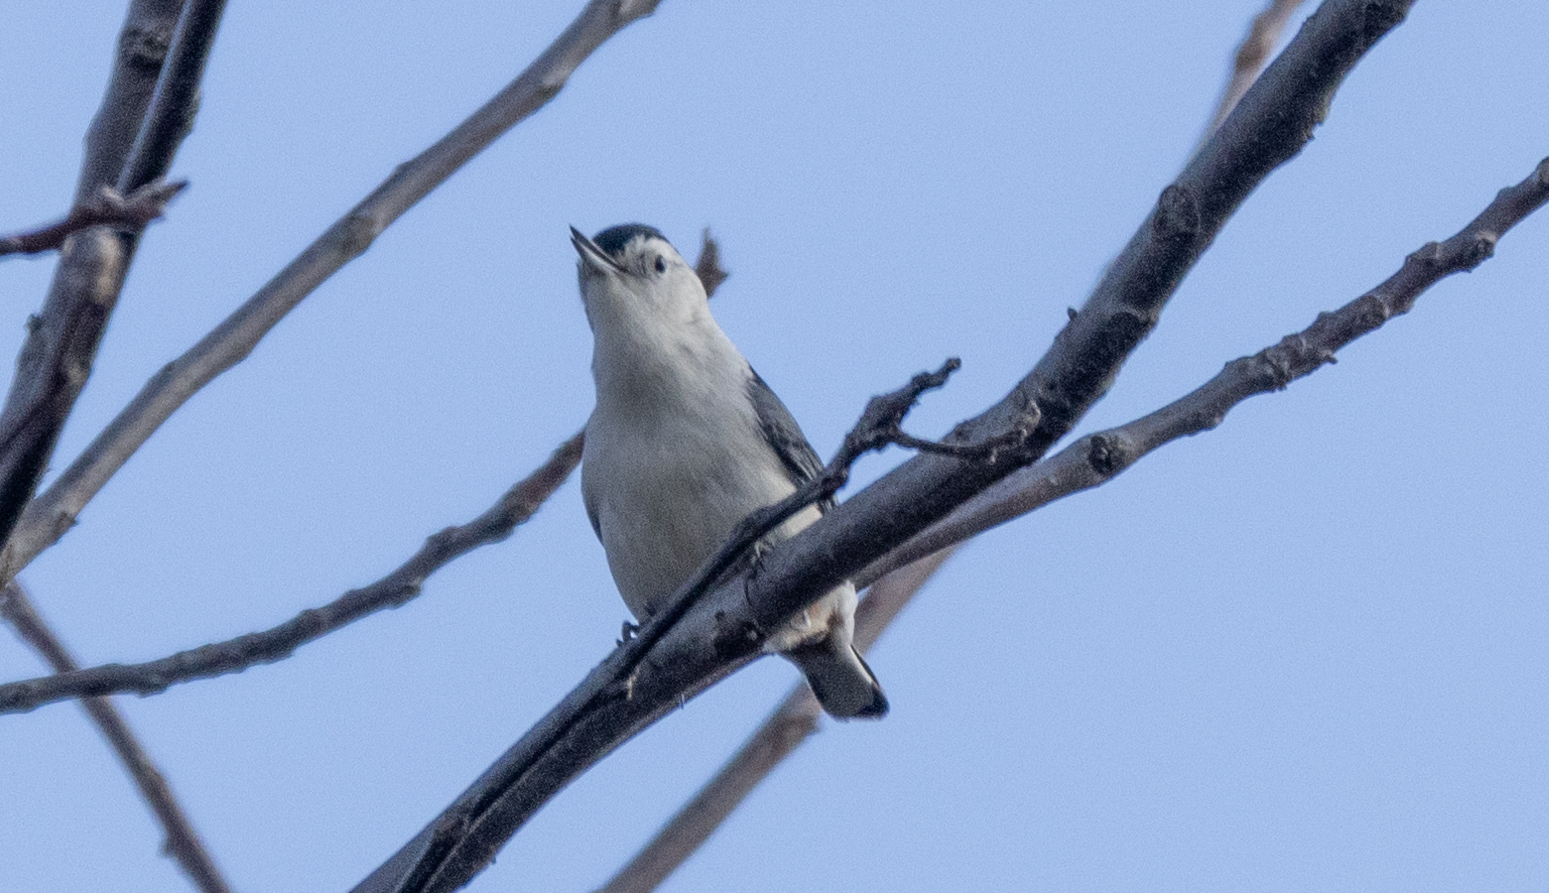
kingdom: Animalia
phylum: Chordata
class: Aves
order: Passeriformes
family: Sittidae
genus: Sitta
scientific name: Sitta carolinensis
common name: White-breasted nuthatch
